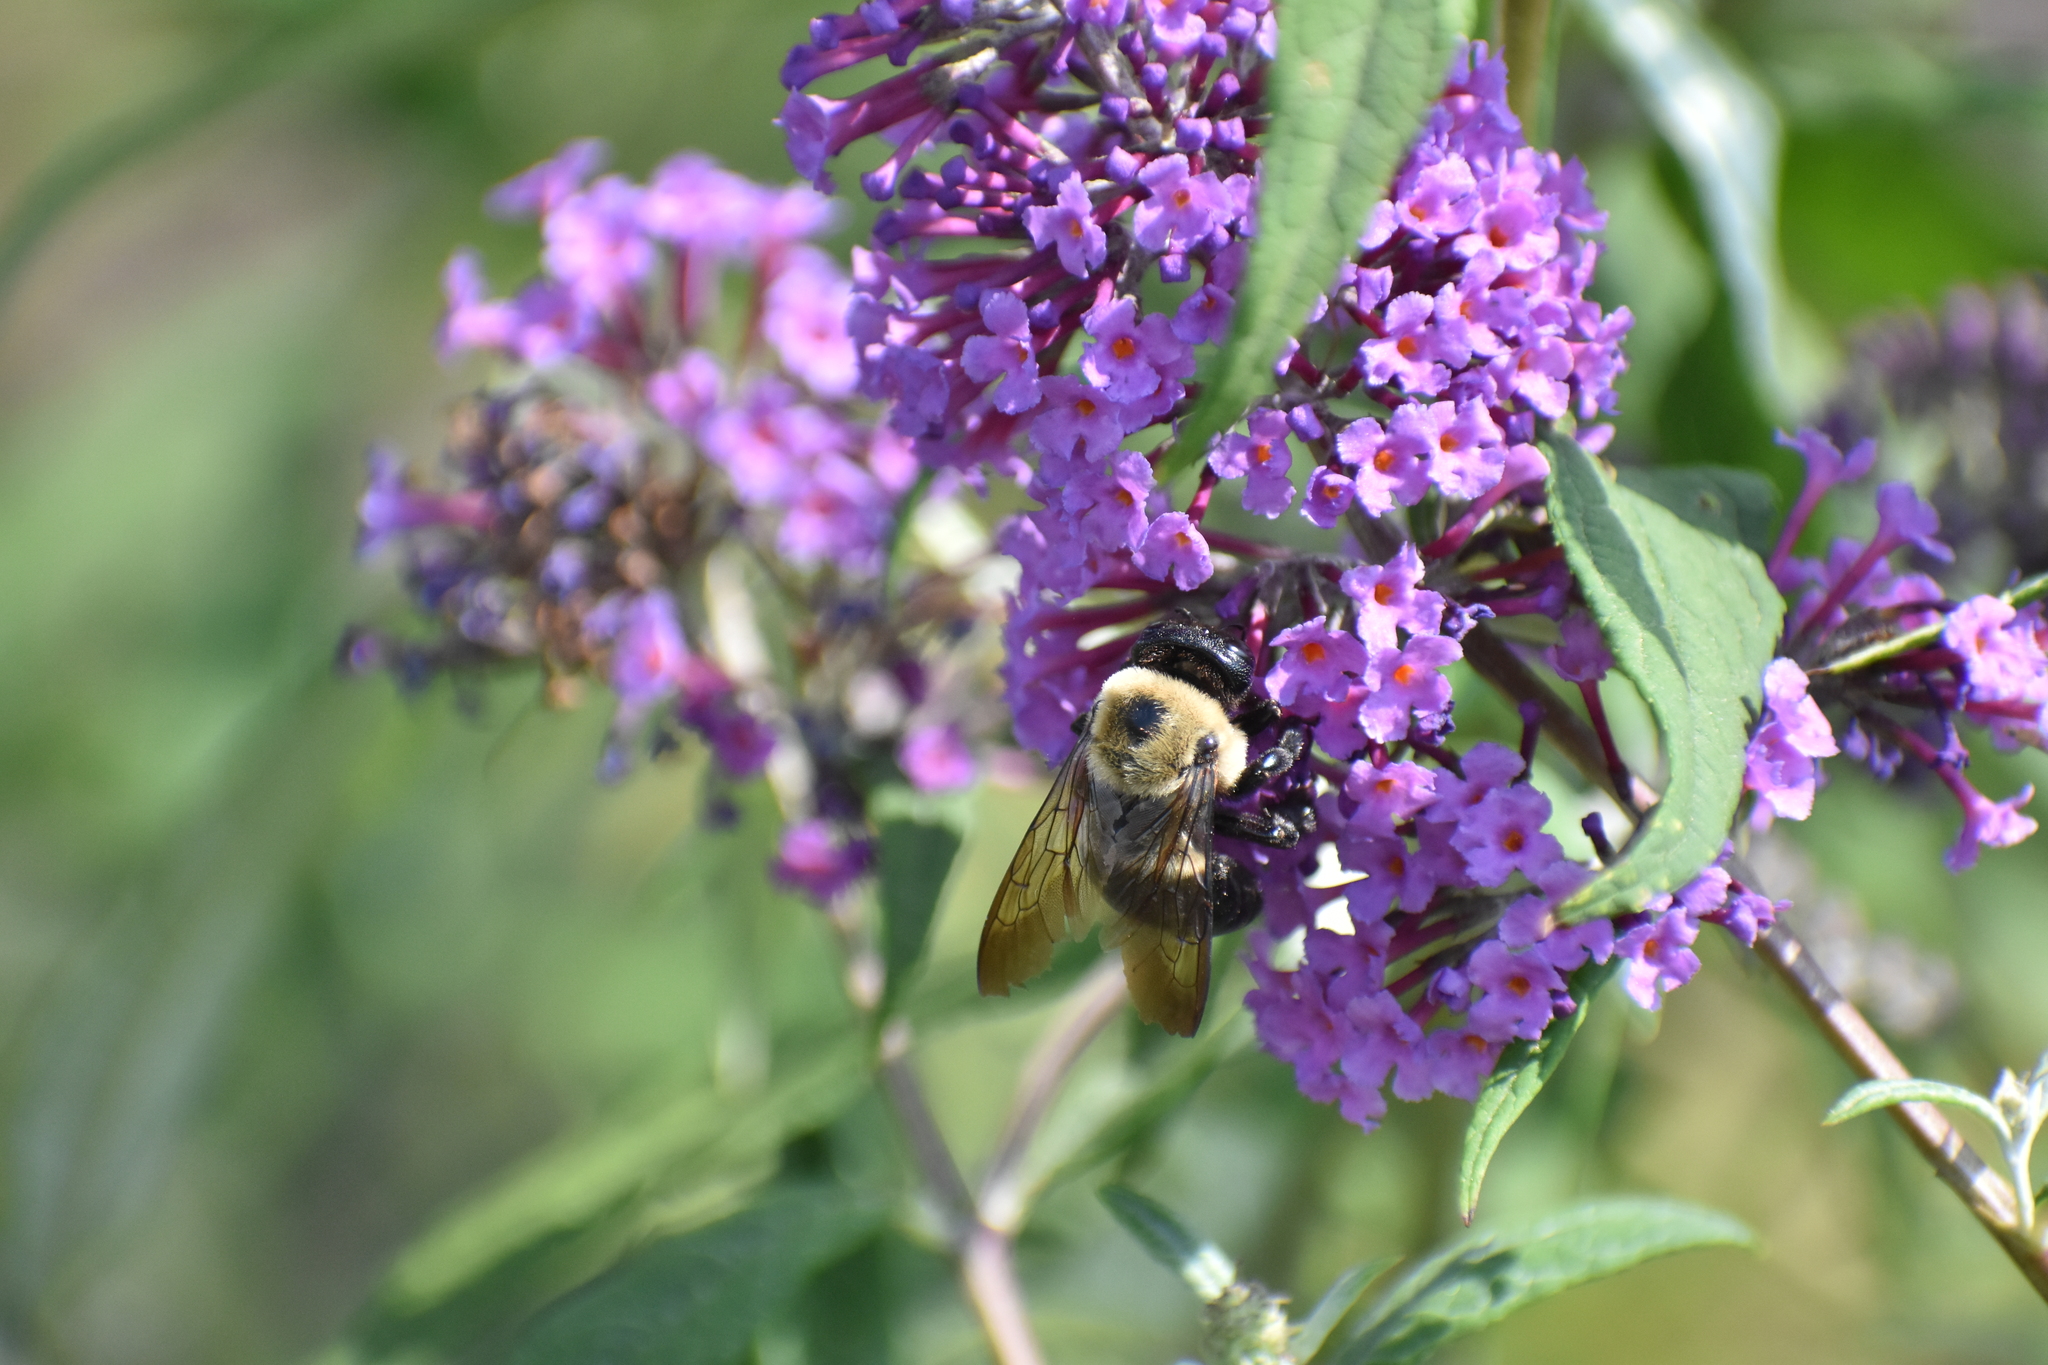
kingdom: Animalia
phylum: Arthropoda
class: Insecta
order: Hymenoptera
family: Apidae
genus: Xylocopa
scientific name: Xylocopa virginica
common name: Carpenter bee
